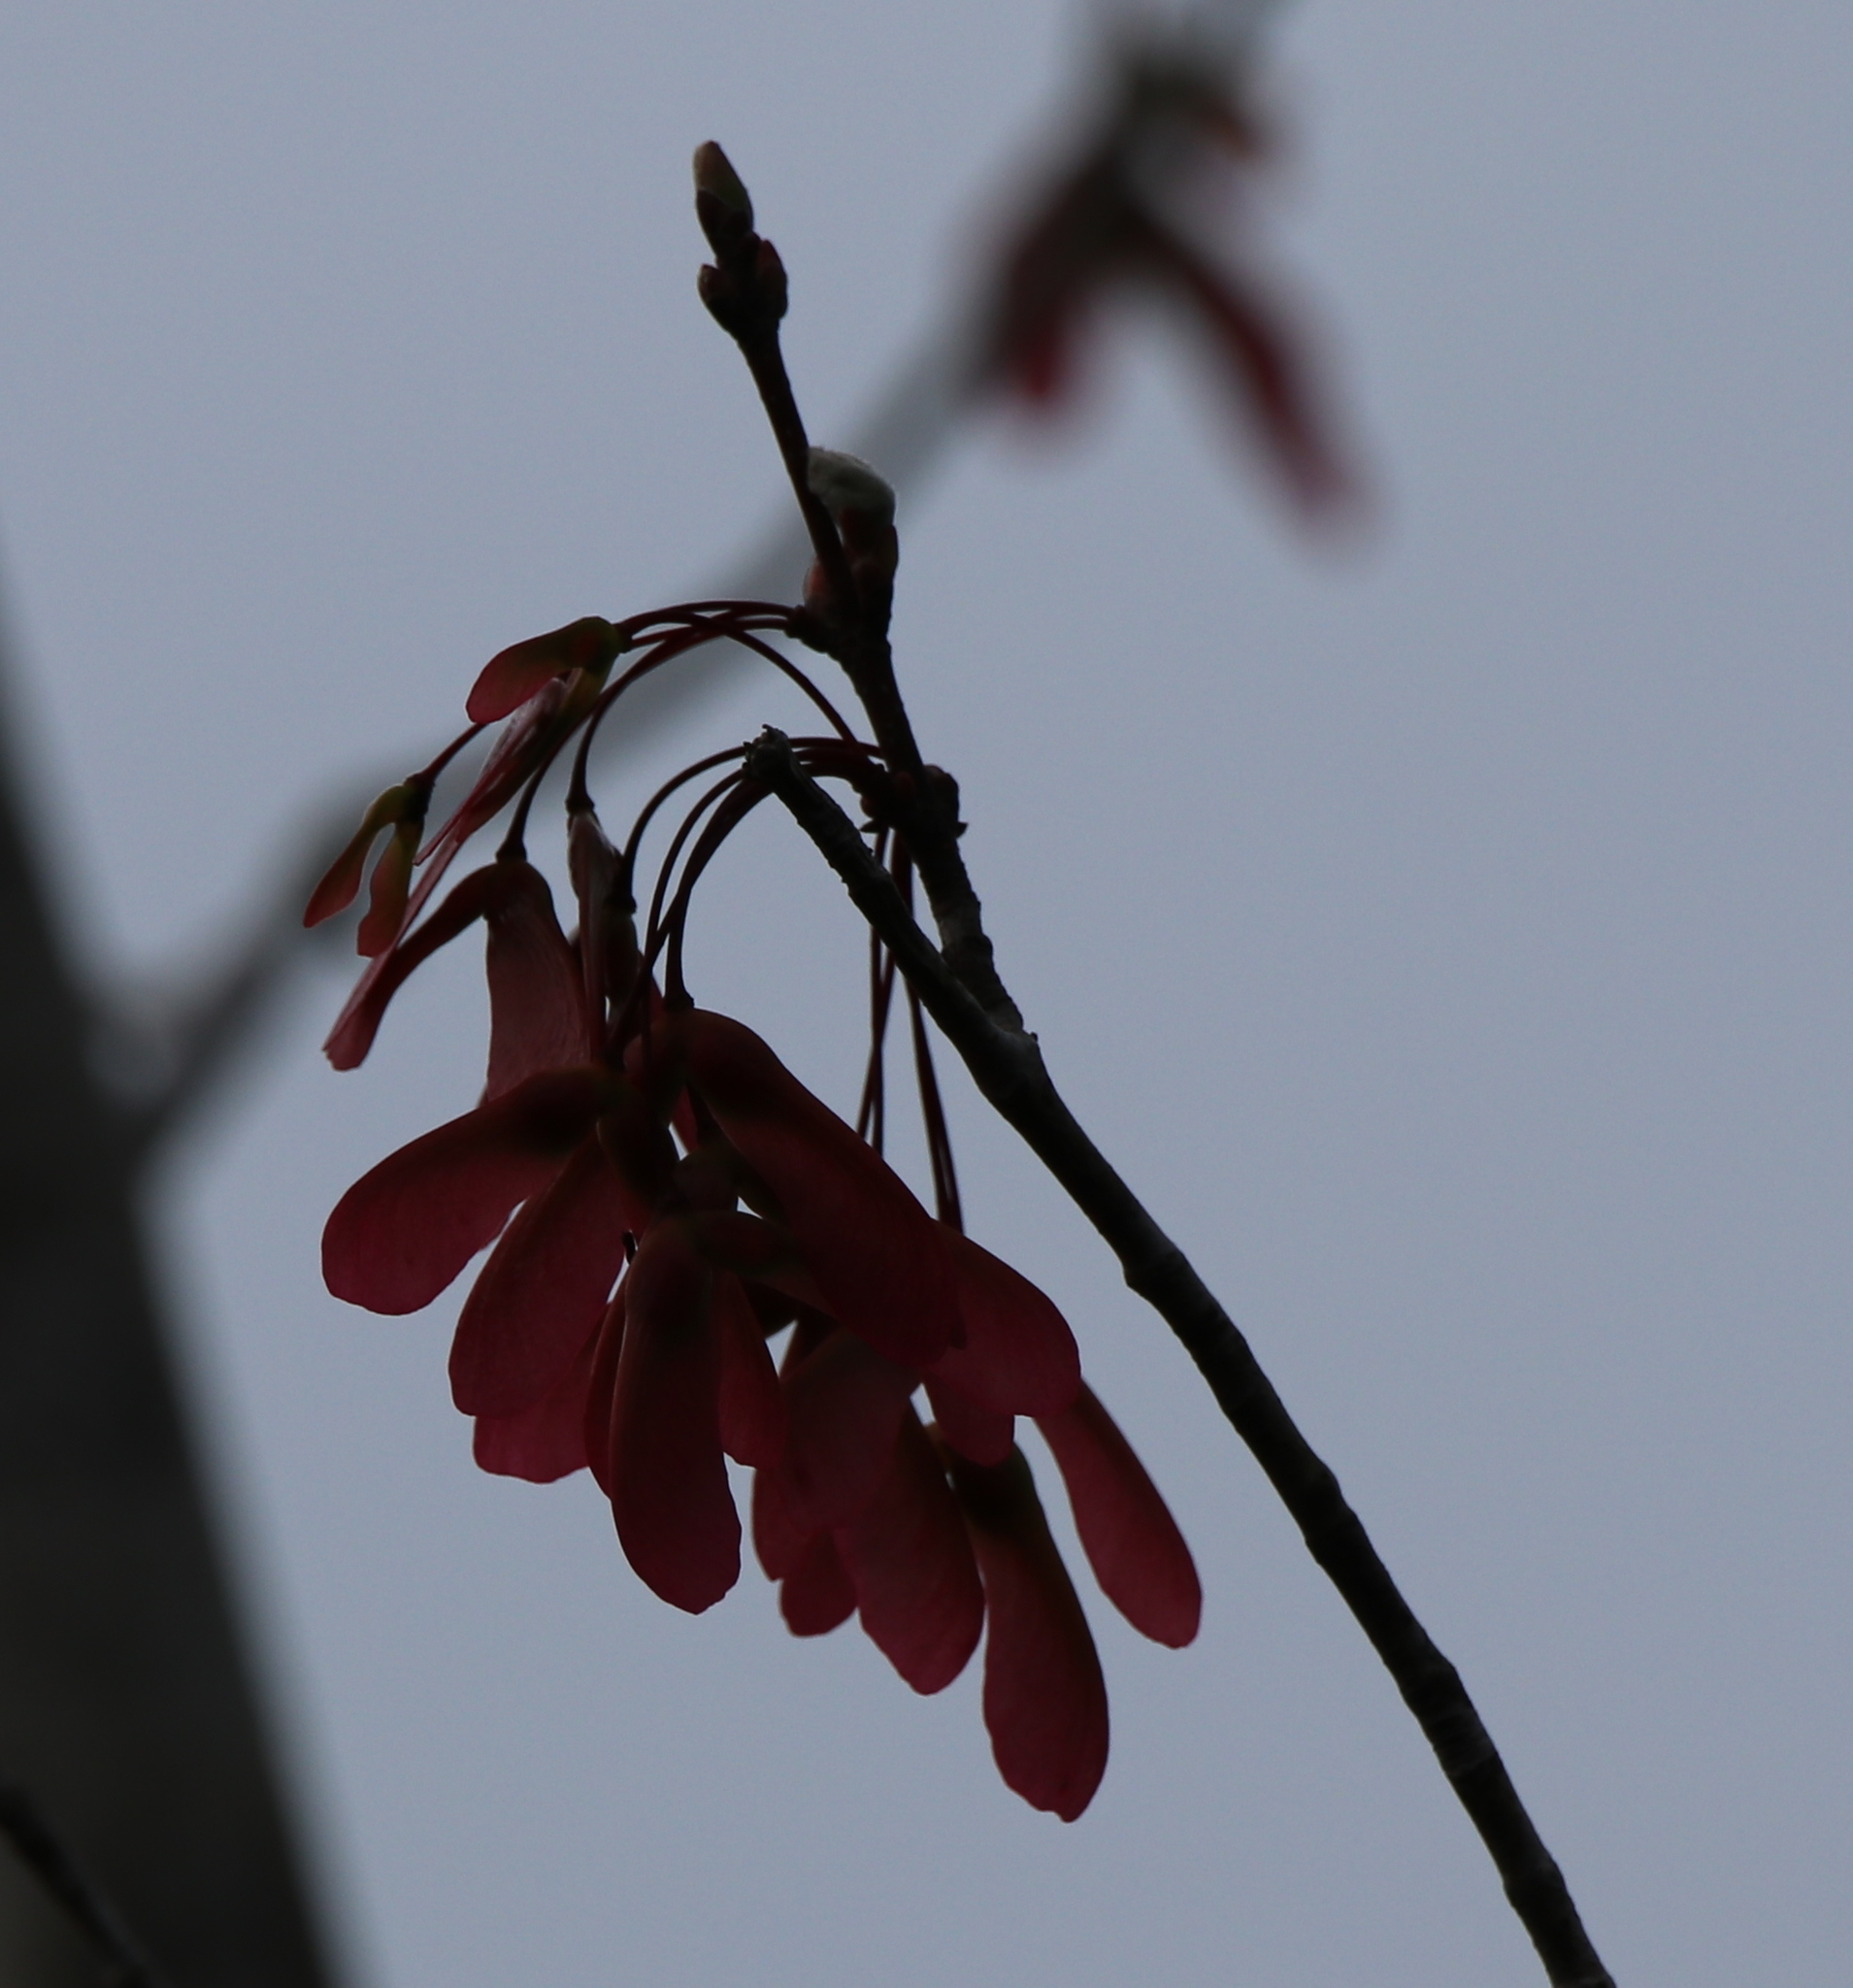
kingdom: Plantae
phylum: Tracheophyta
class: Magnoliopsida
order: Sapindales
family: Sapindaceae
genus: Acer
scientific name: Acer rubrum
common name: Red maple
